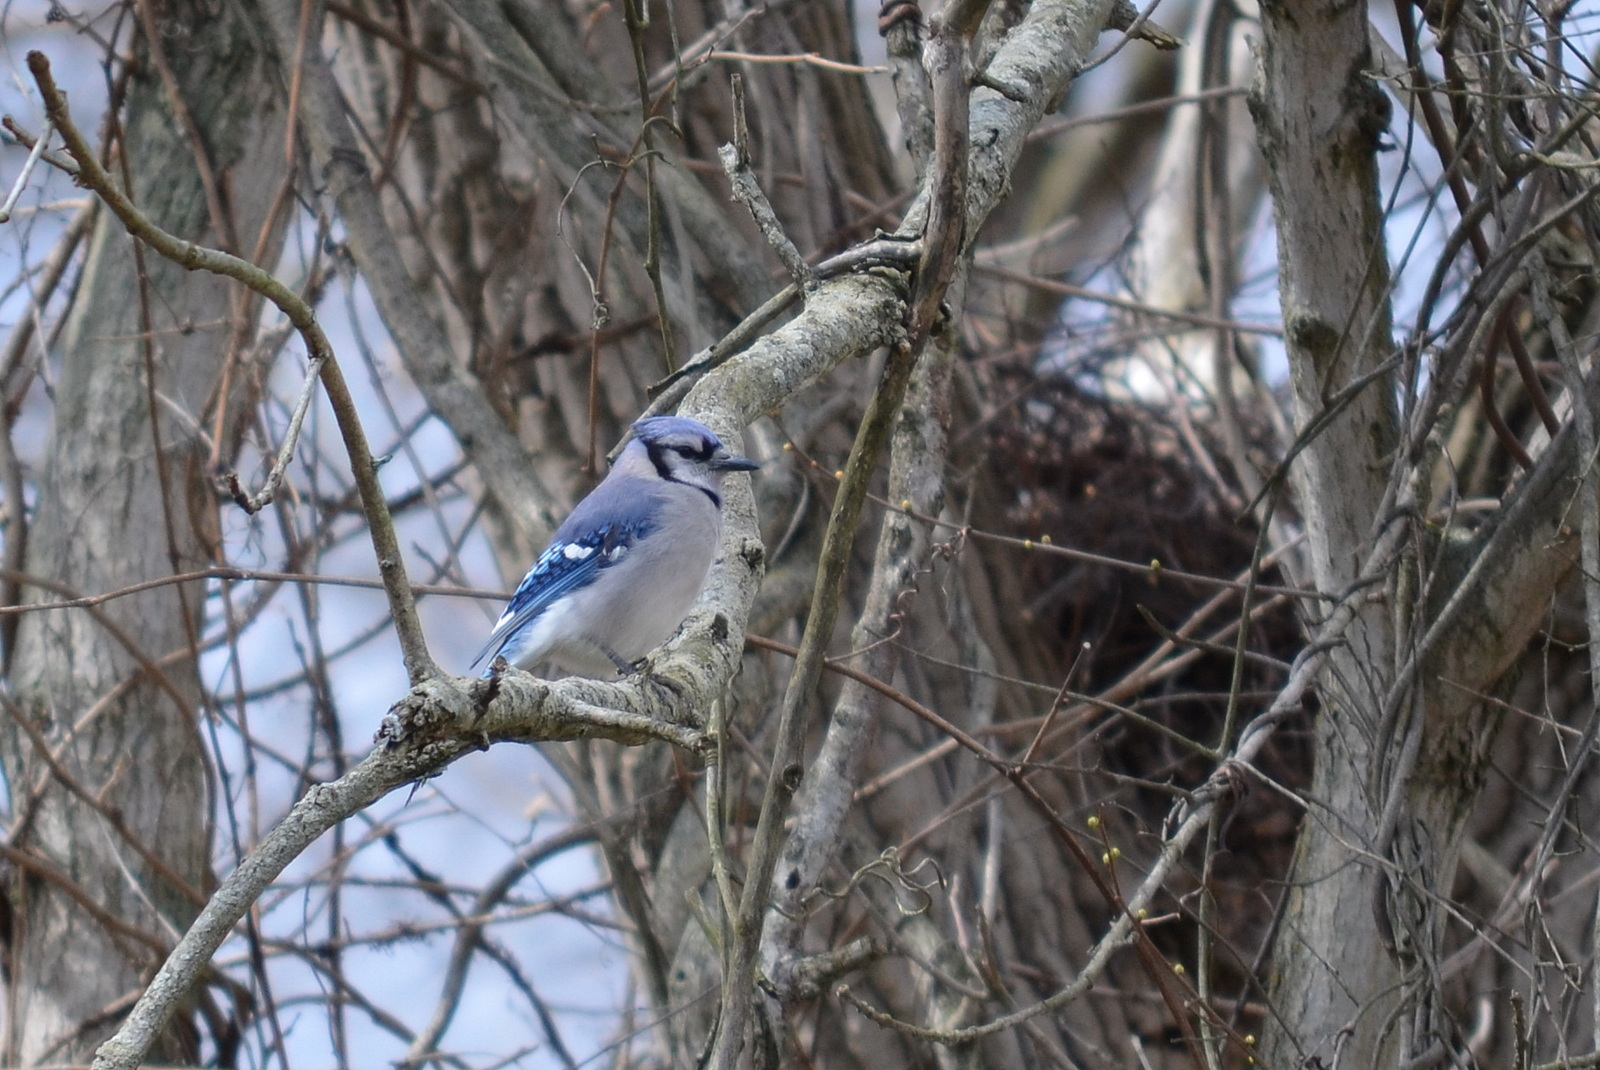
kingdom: Animalia
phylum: Chordata
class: Aves
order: Passeriformes
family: Corvidae
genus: Cyanocitta
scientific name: Cyanocitta cristata
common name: Blue jay
